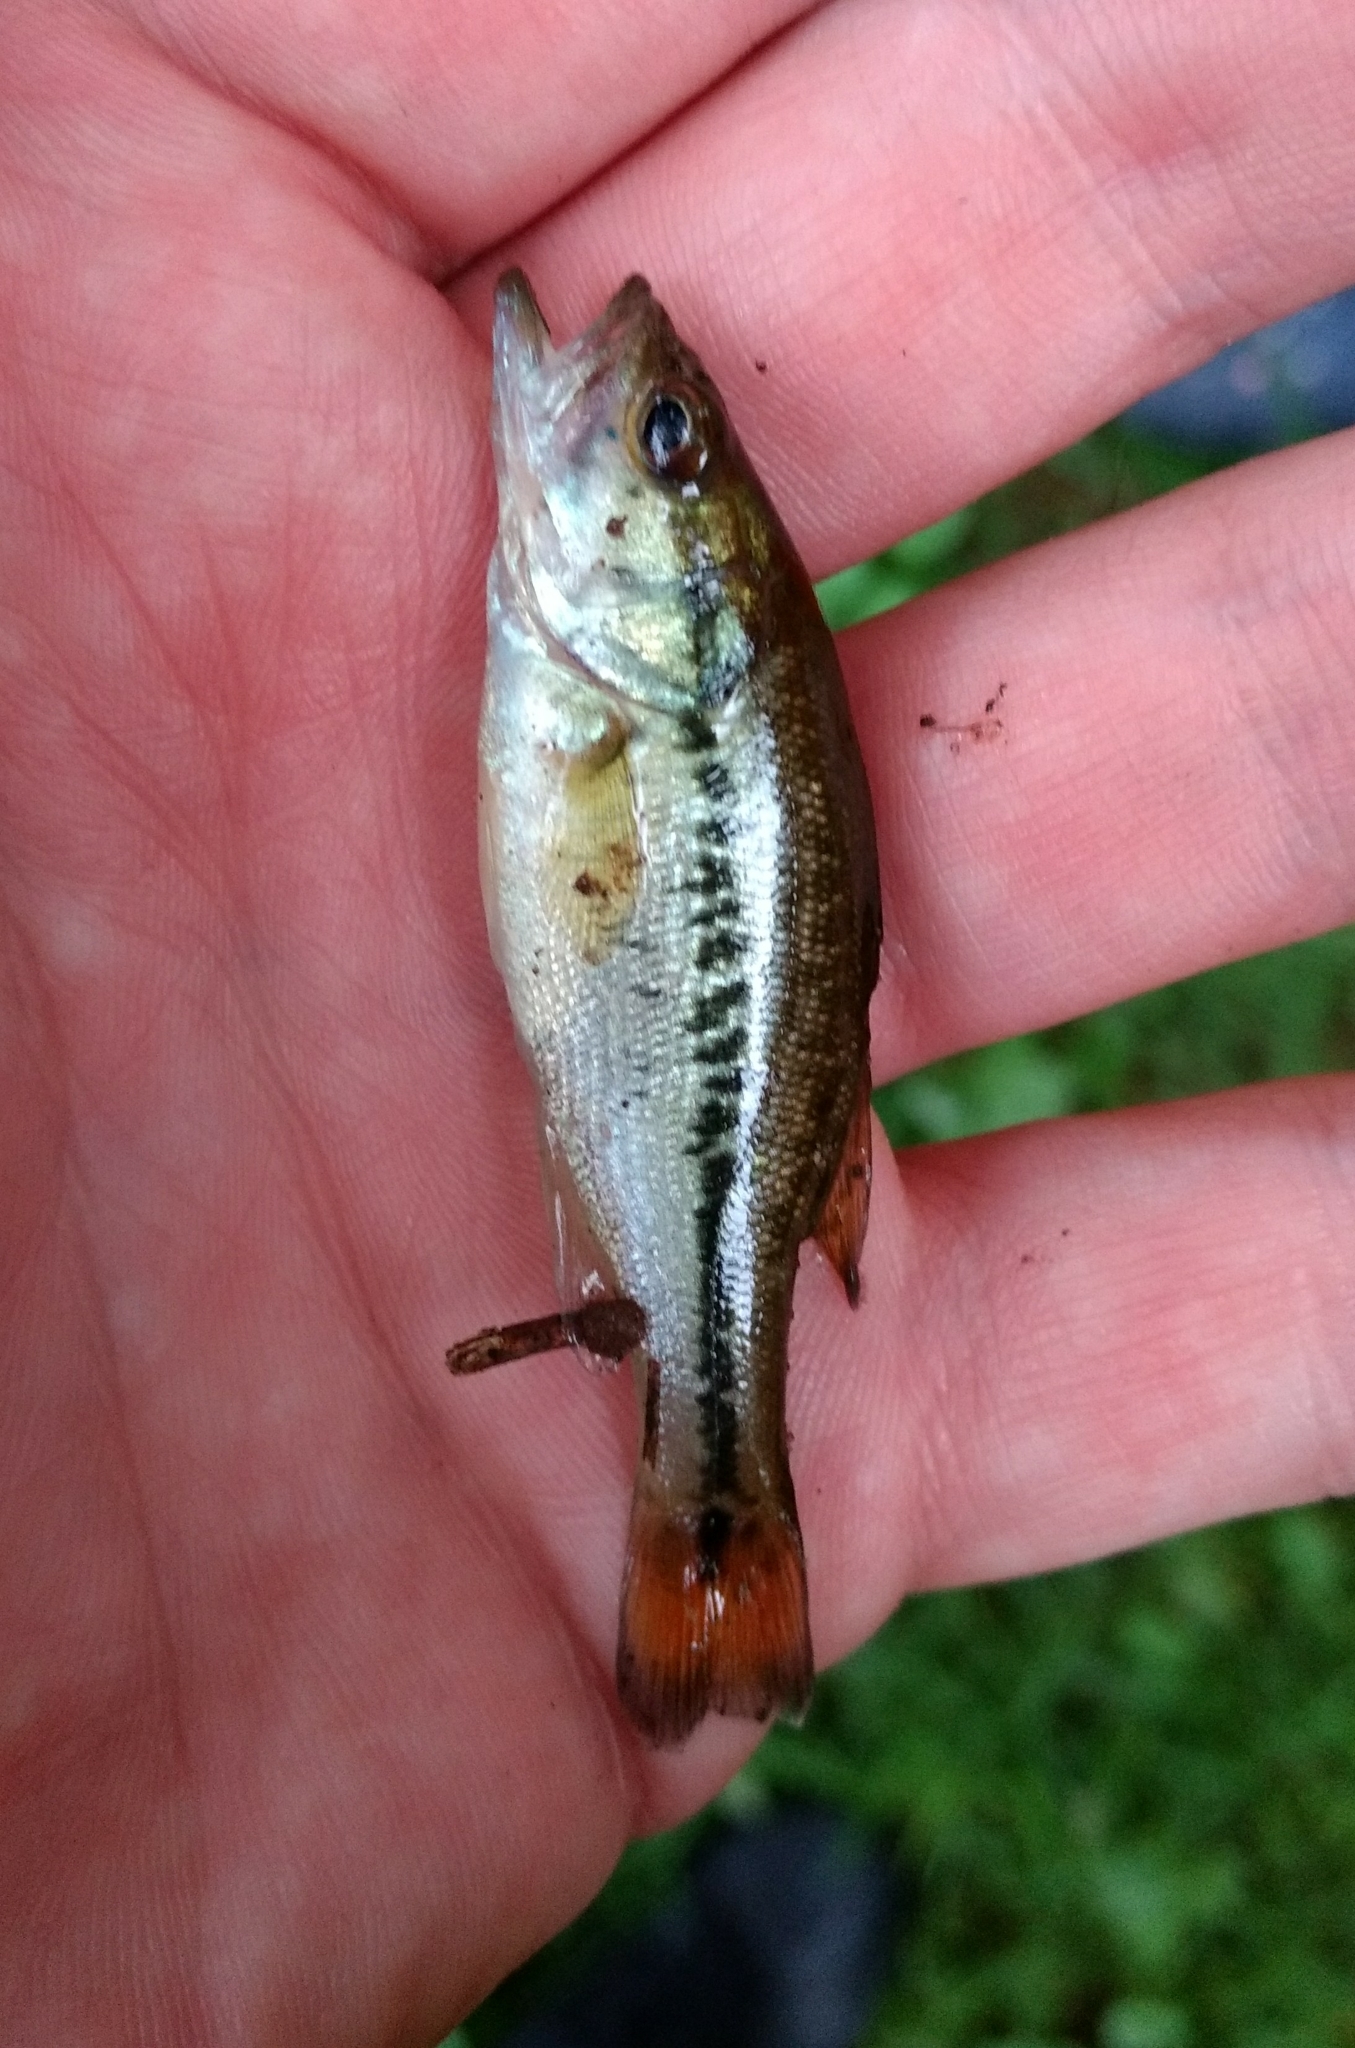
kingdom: Animalia
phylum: Chordata
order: Perciformes
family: Centrarchidae
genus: Micropterus
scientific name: Micropterus
